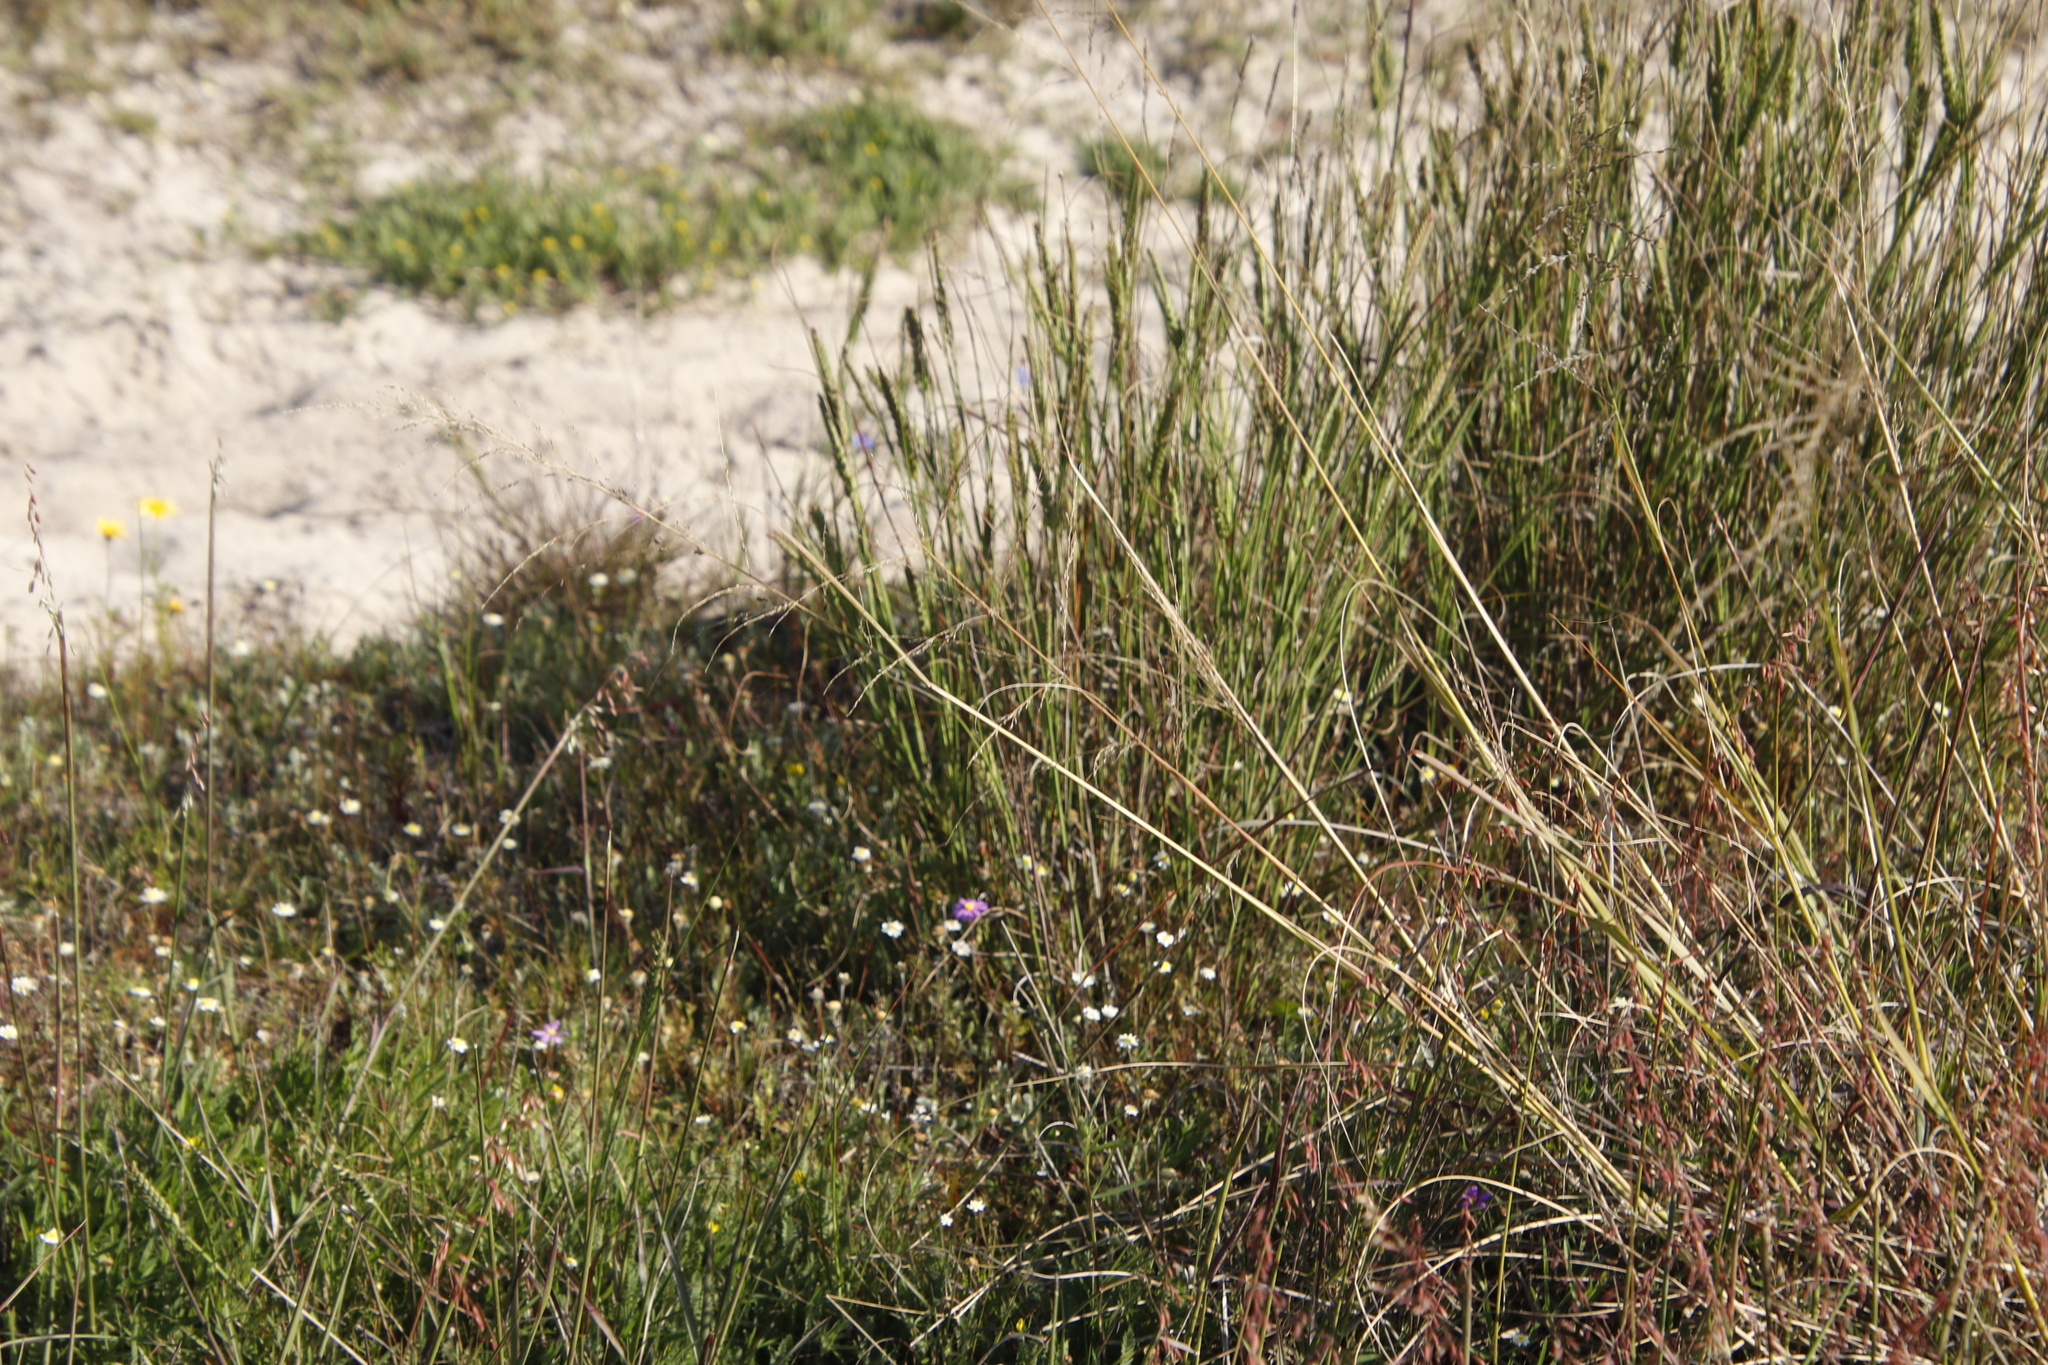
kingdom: Plantae
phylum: Tracheophyta
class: Liliopsida
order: Poales
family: Poaceae
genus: Tribolium
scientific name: Tribolium uniolae
